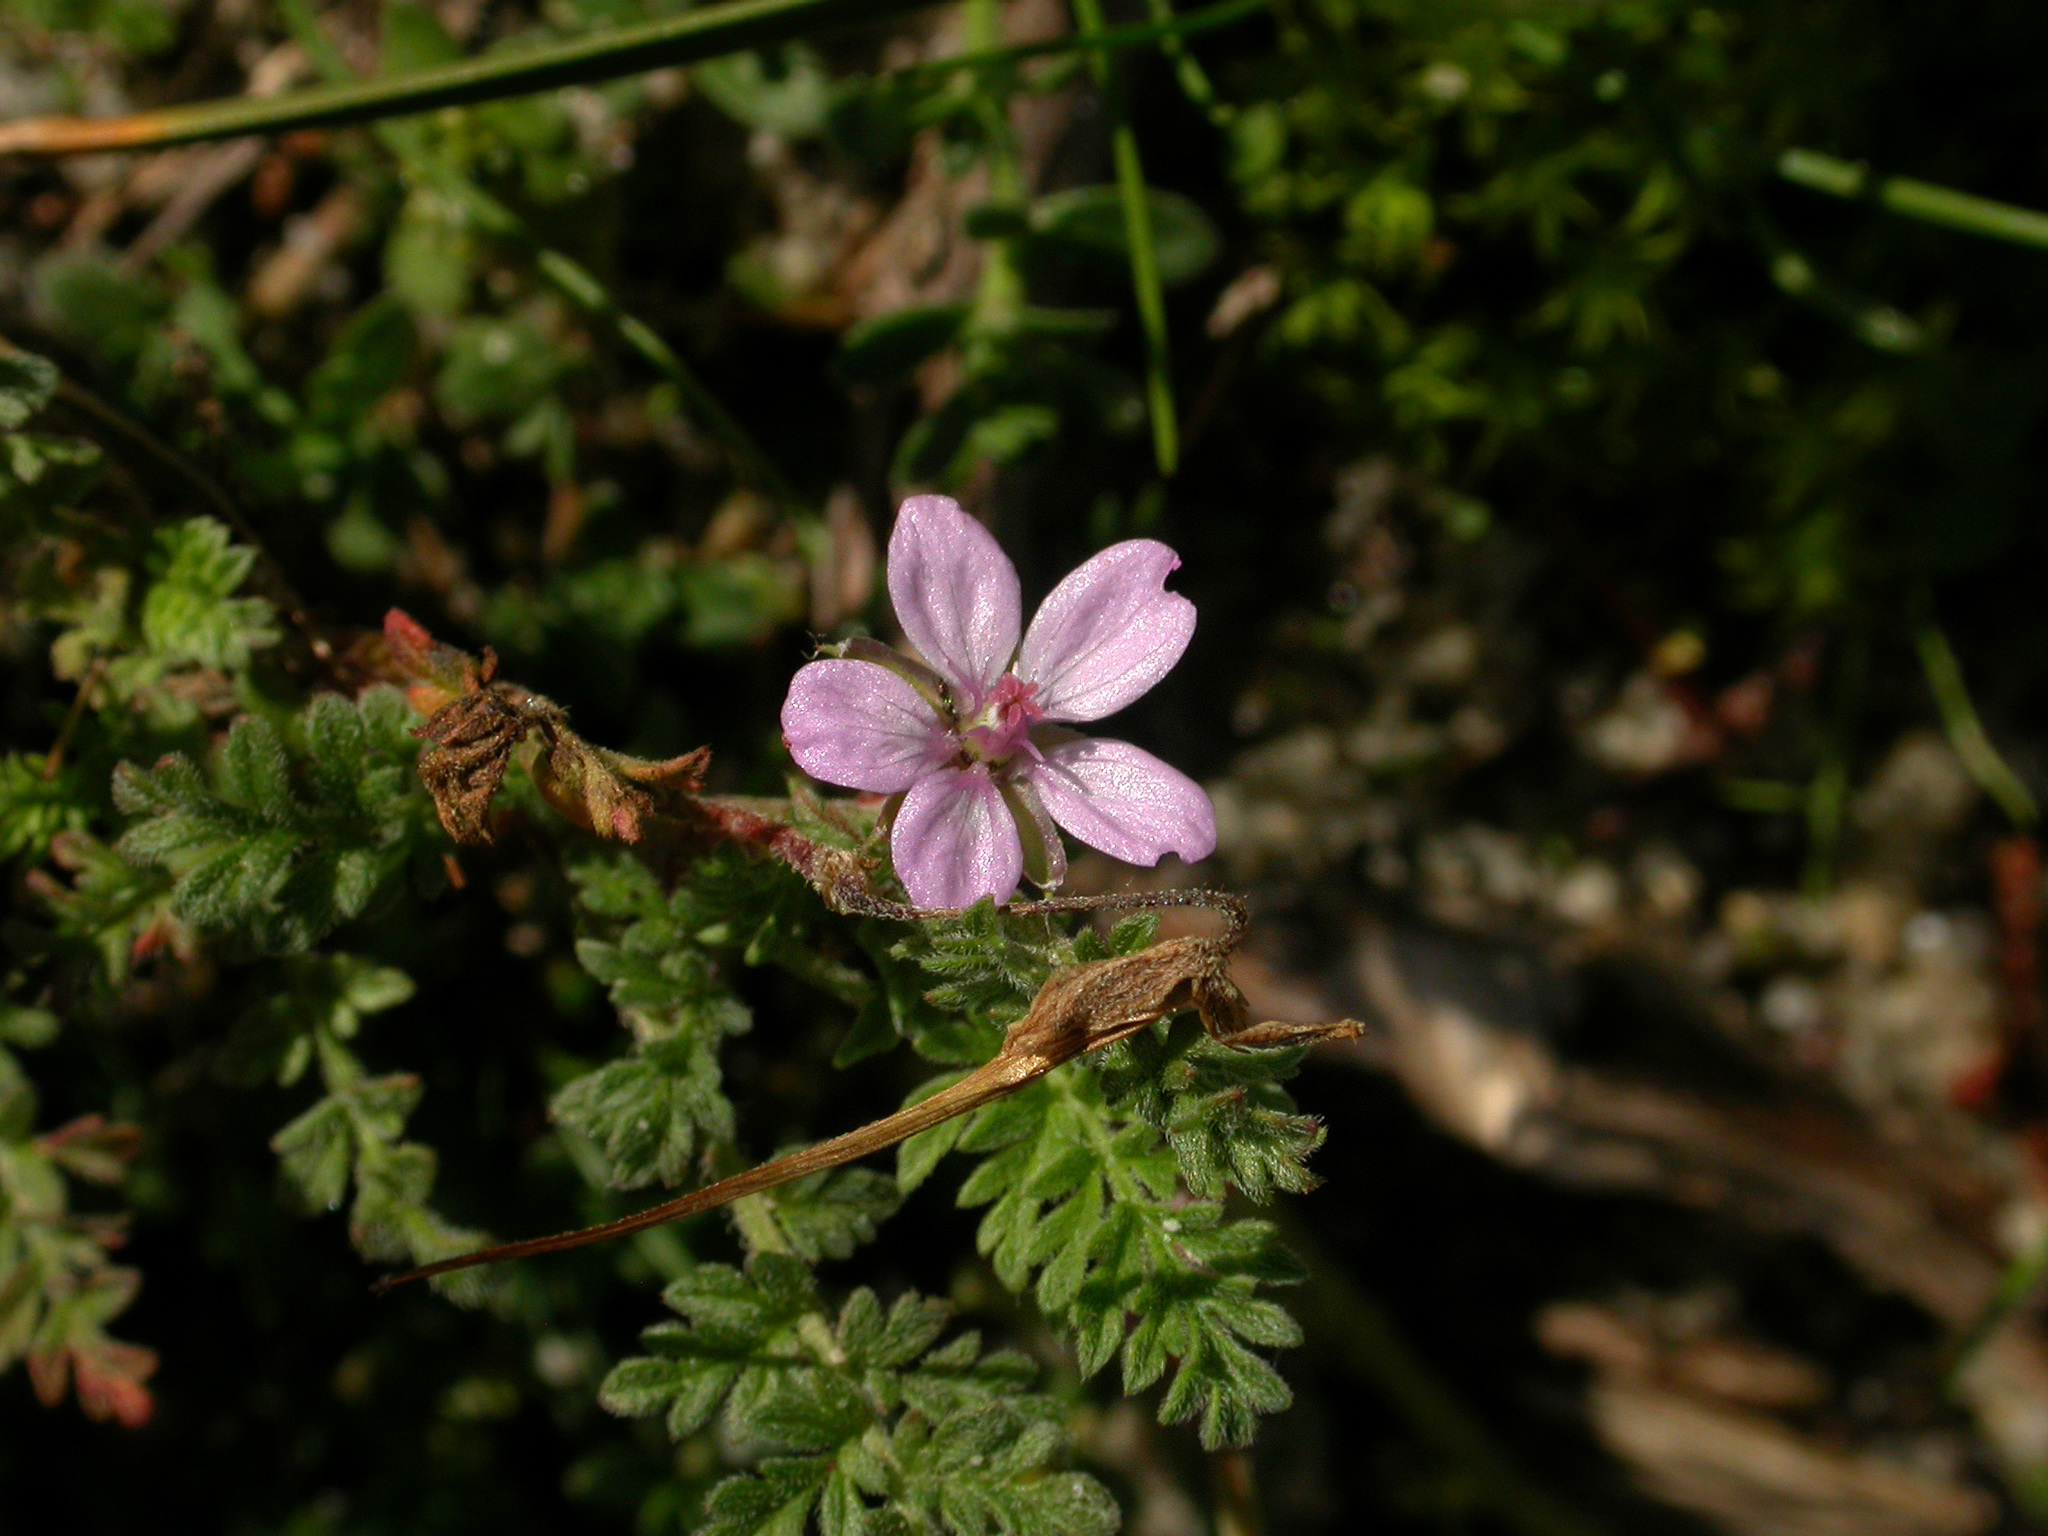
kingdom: Plantae
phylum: Tracheophyta
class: Magnoliopsida
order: Geraniales
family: Geraniaceae
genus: Erodium
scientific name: Erodium cicutarium
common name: Common stork's-bill
